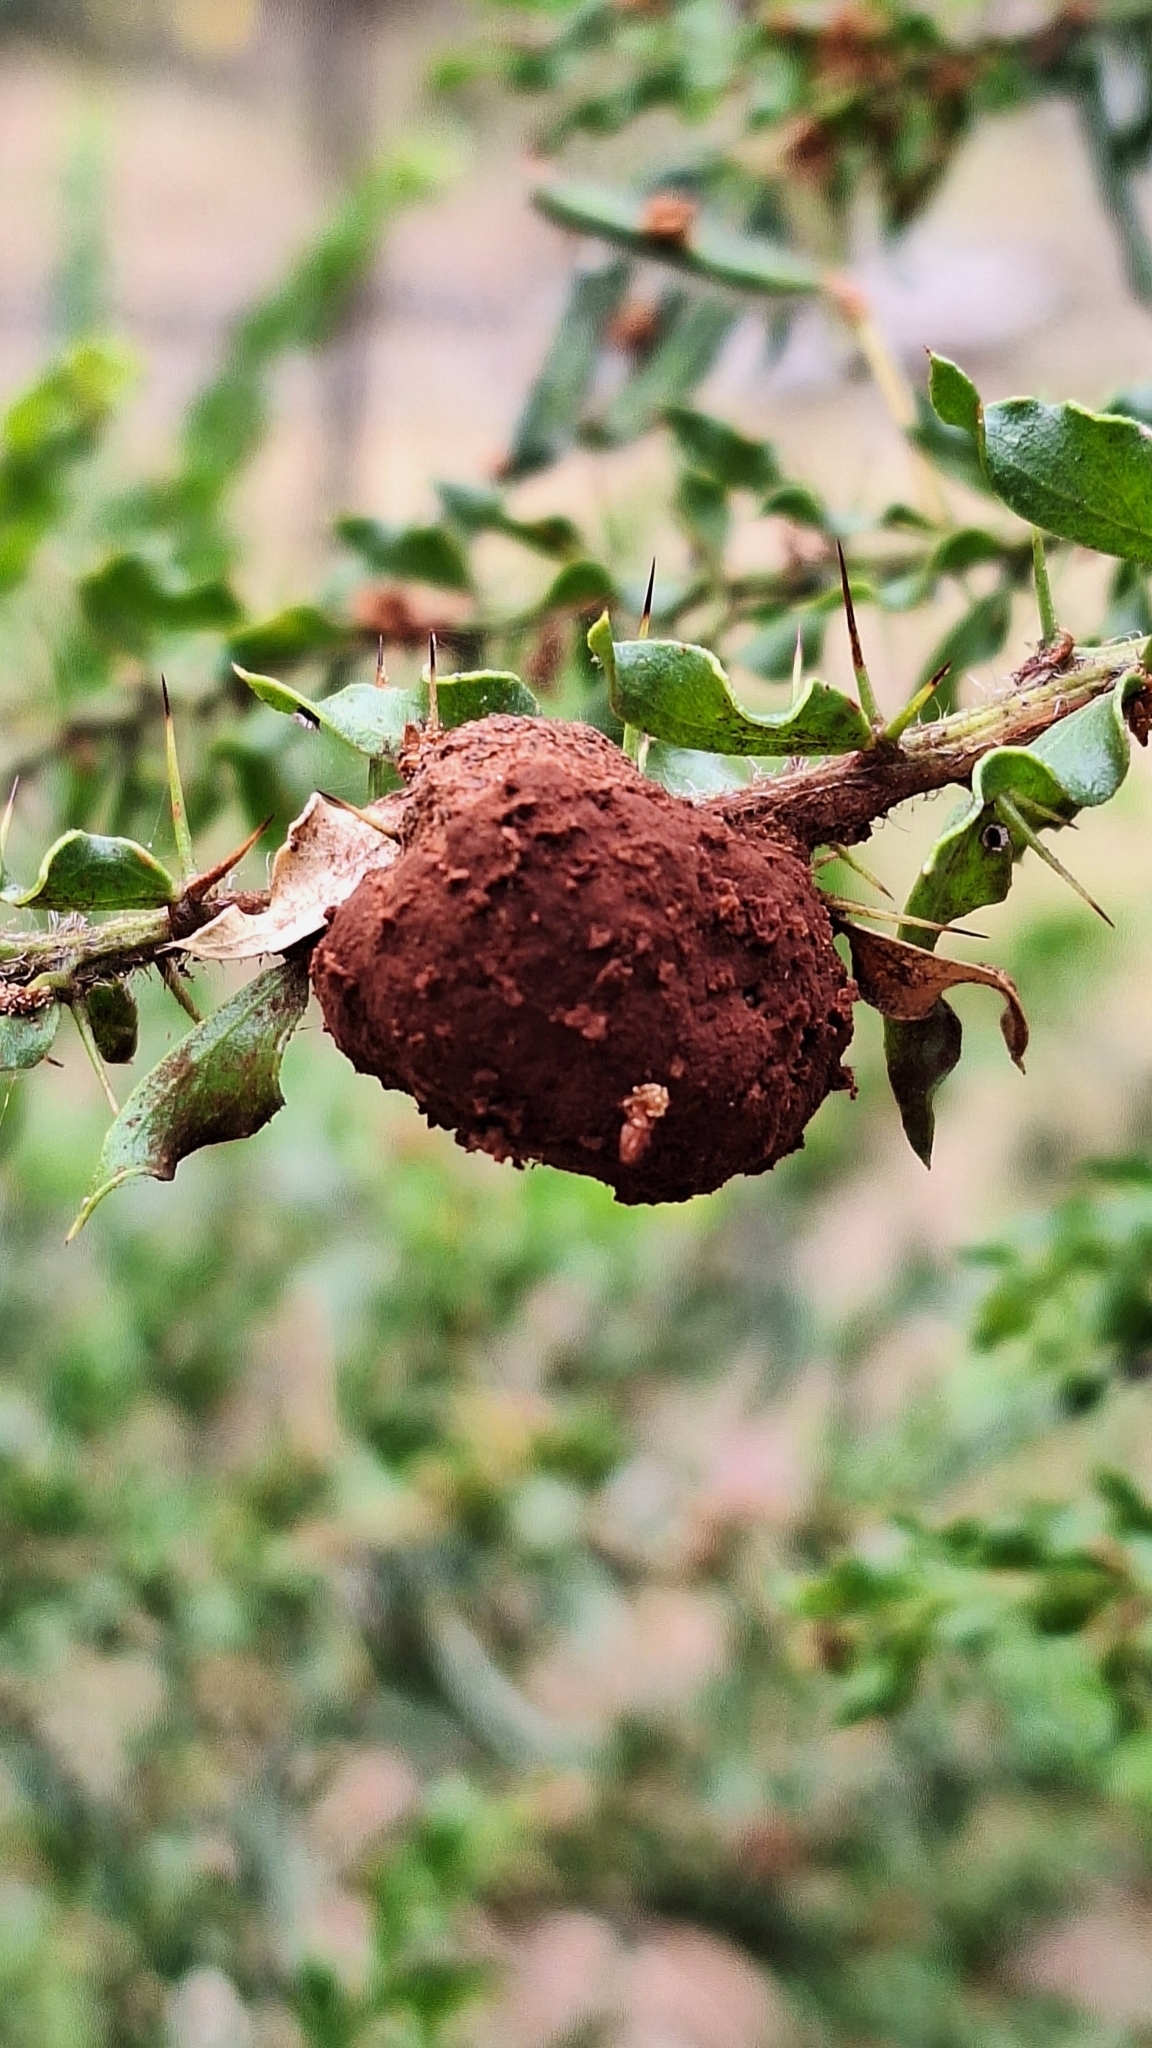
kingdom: Fungi
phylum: Basidiomycota
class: Pucciniomycetes
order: Pucciniales
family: Uromycladiaceae
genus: Uromycladium
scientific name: Uromycladium paradoxae
